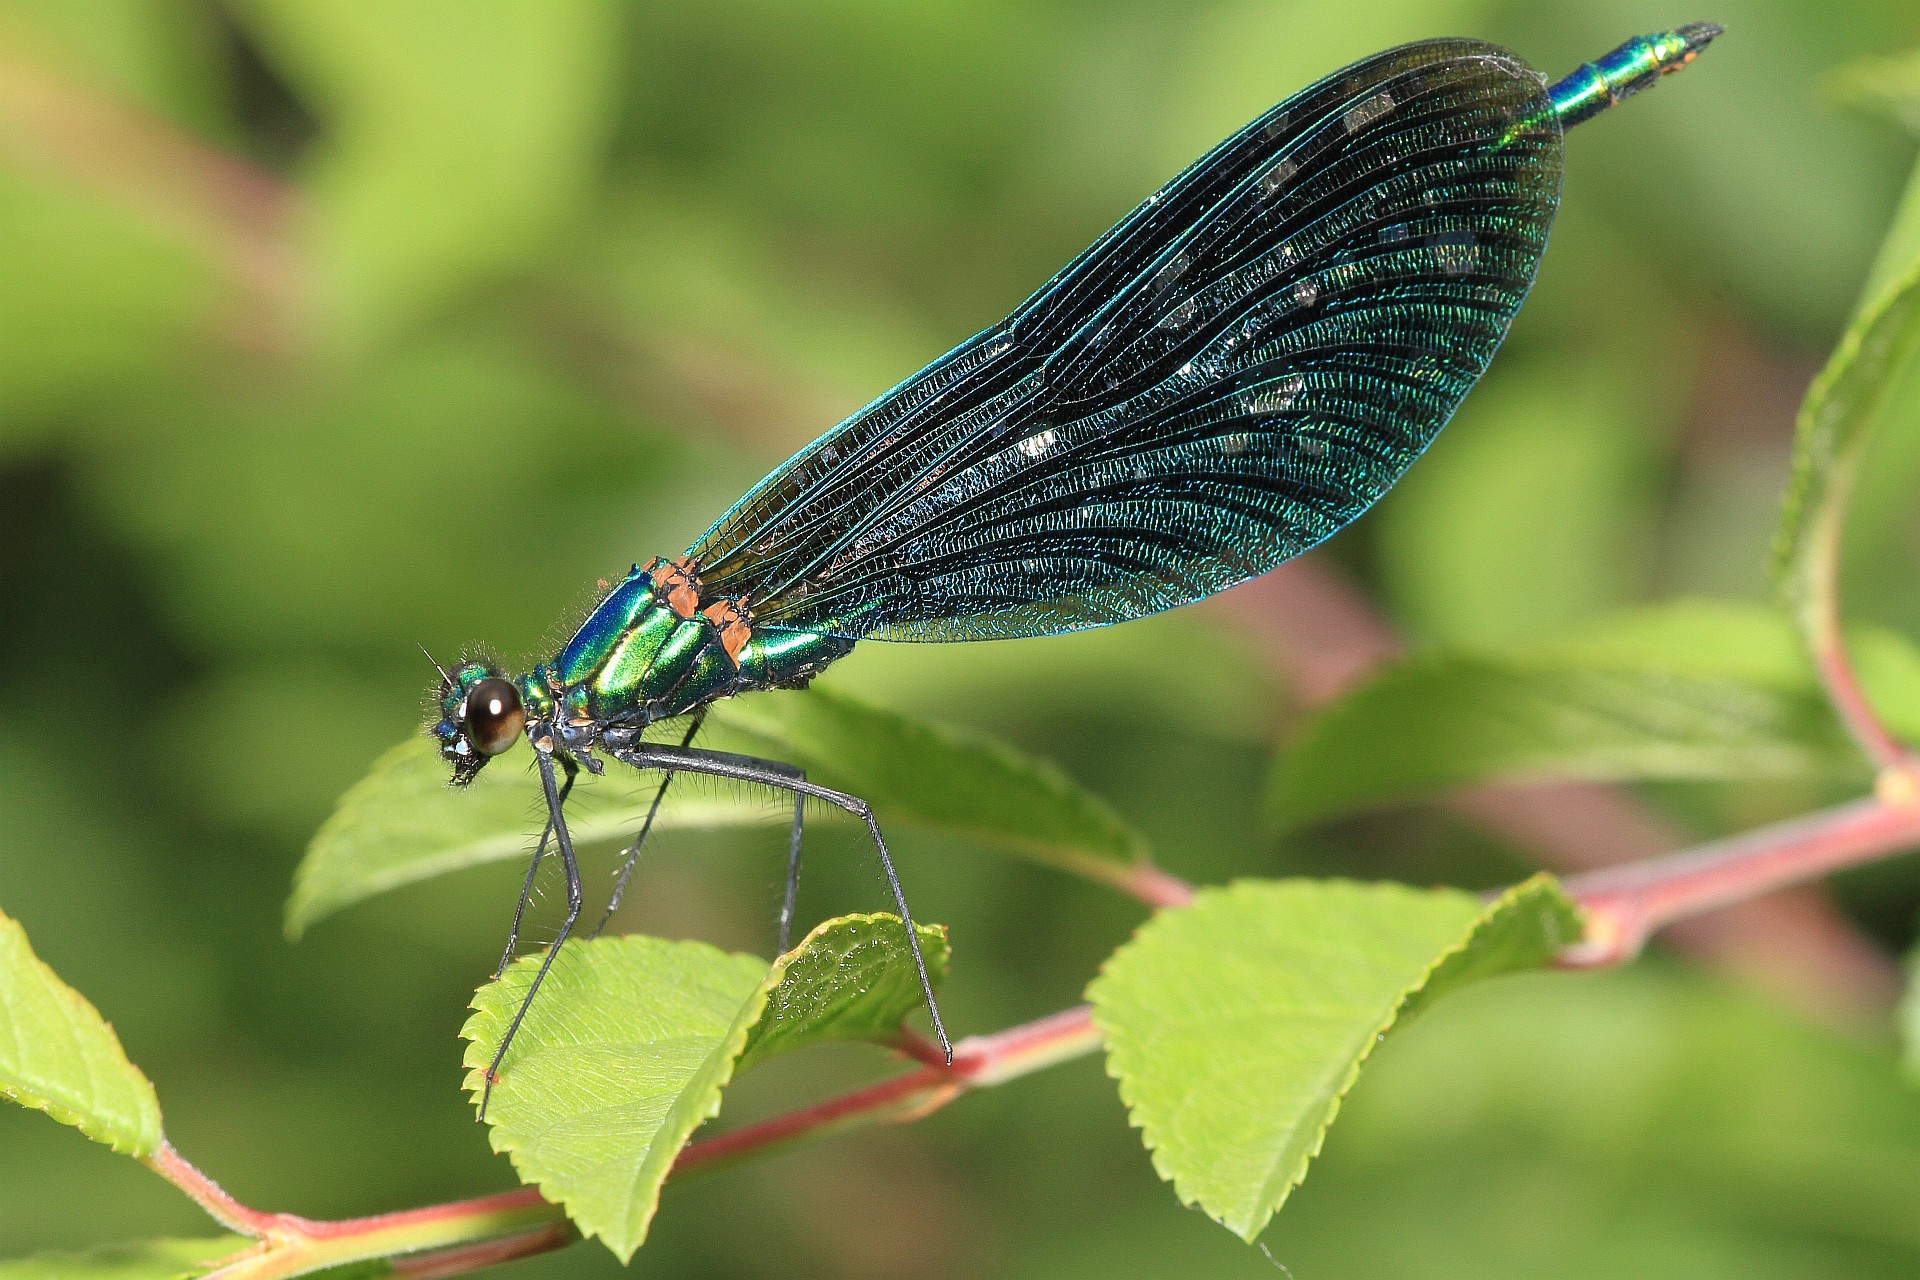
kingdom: Animalia
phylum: Arthropoda
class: Insecta
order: Odonata
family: Calopterygidae
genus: Calopteryx
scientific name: Calopteryx virgo
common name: Beautiful demoiselle
